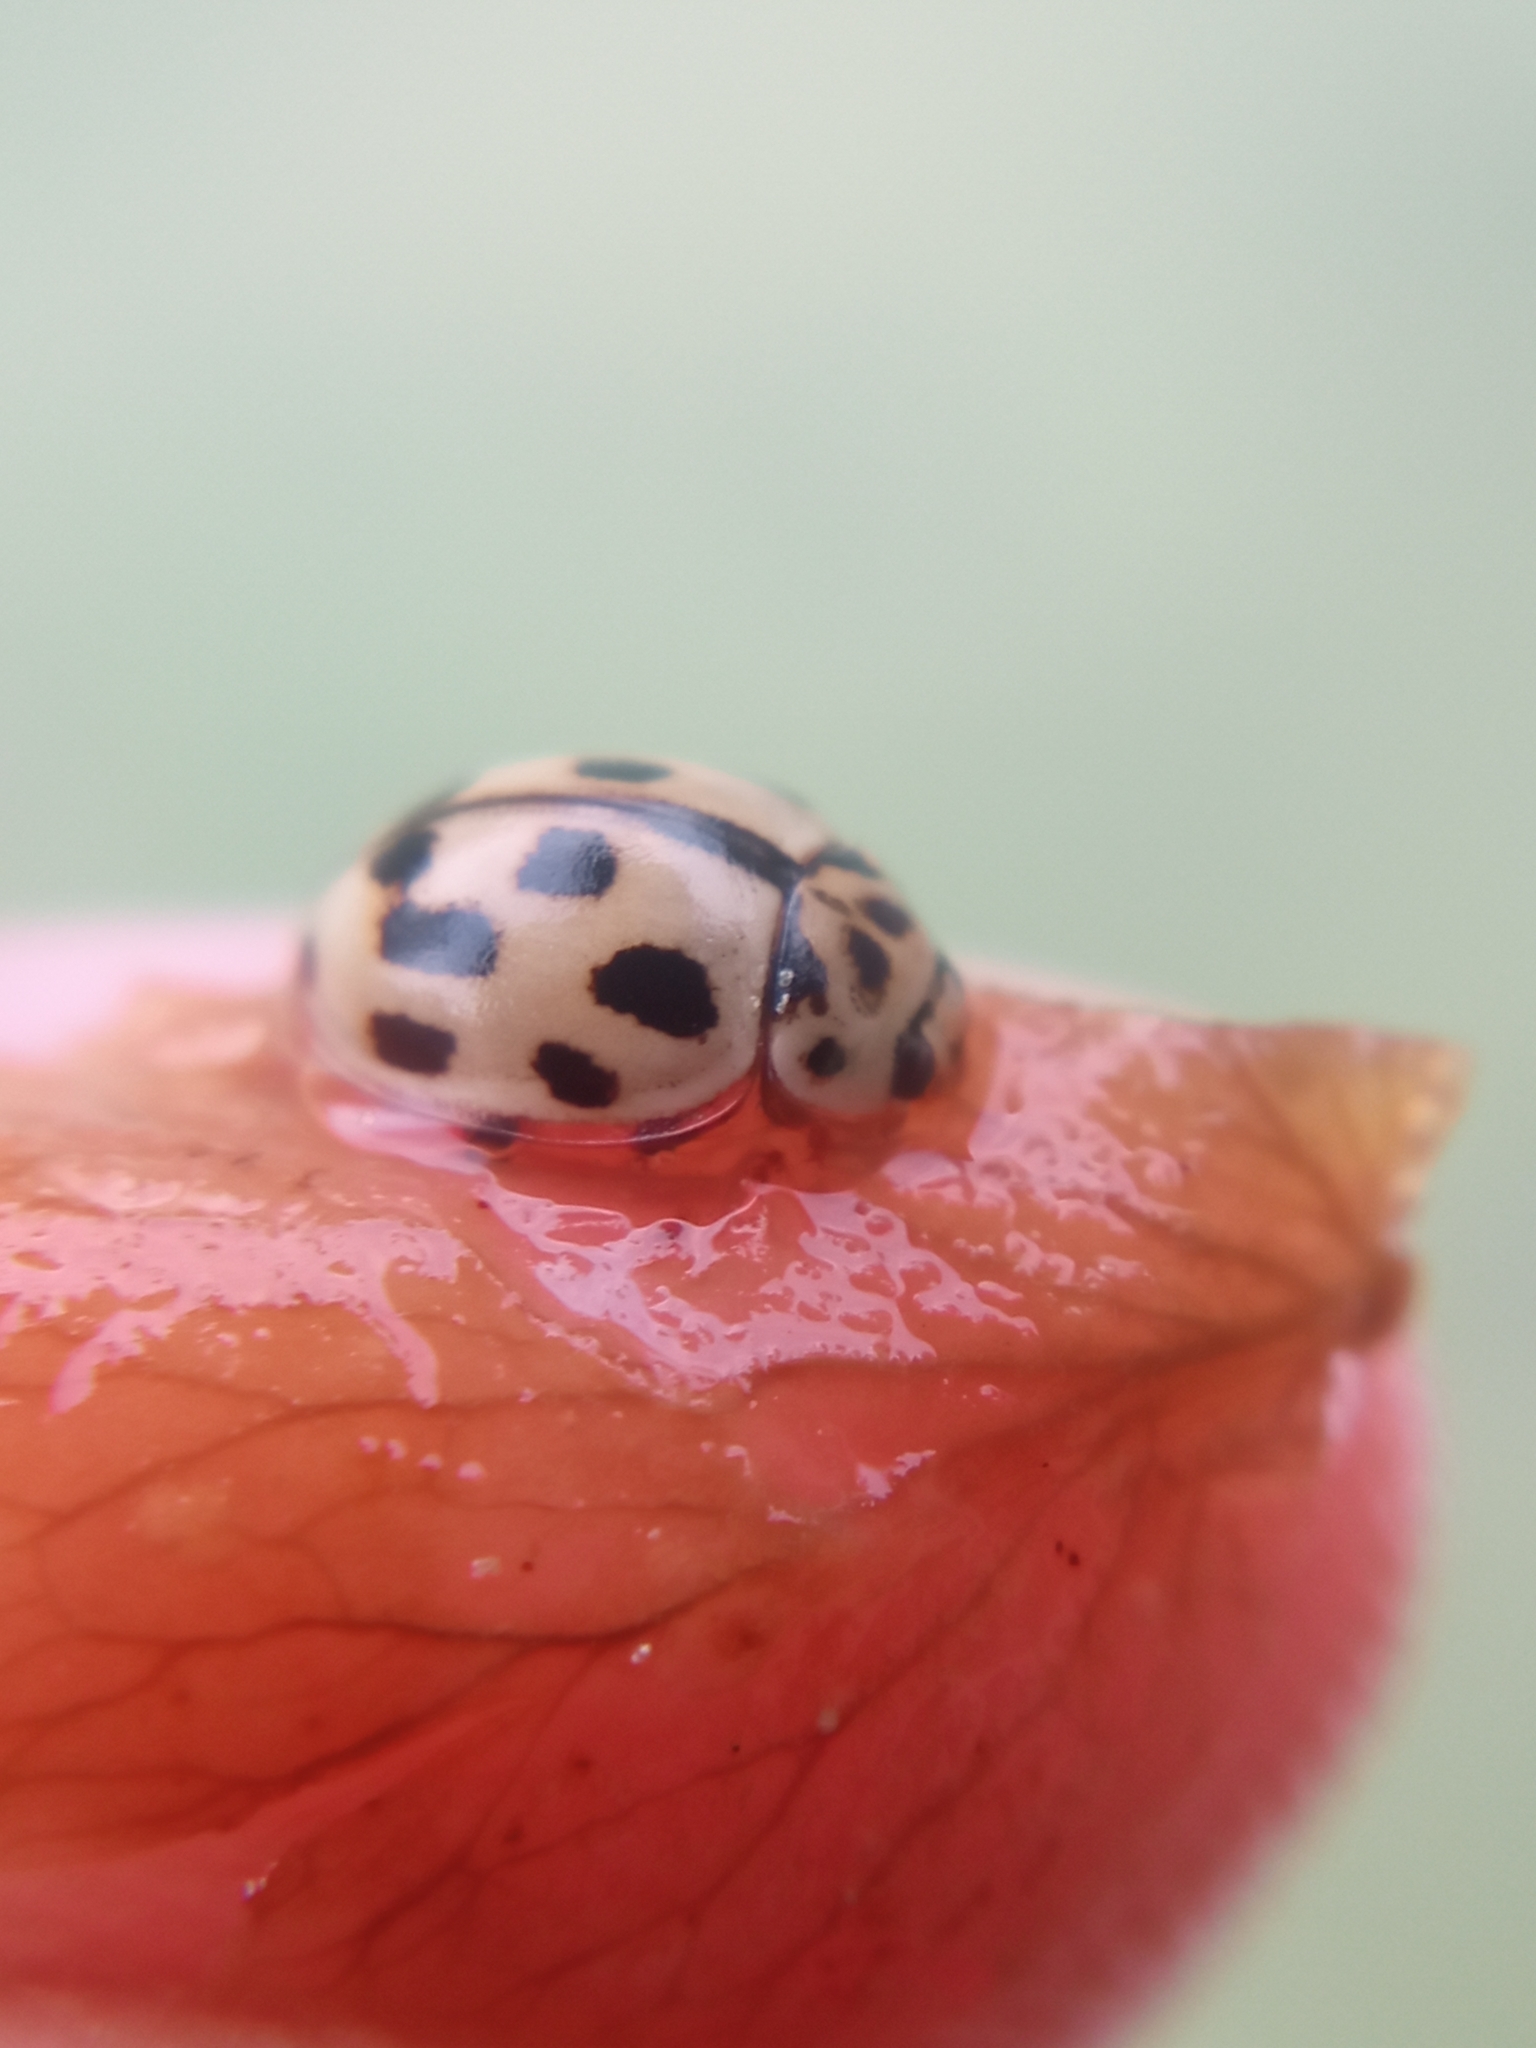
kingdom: Animalia
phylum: Arthropoda
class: Insecta
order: Coleoptera
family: Coccinellidae
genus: Propylaea
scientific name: Propylaea quatuordecimpunctata
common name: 14-spotted ladybird beetle
